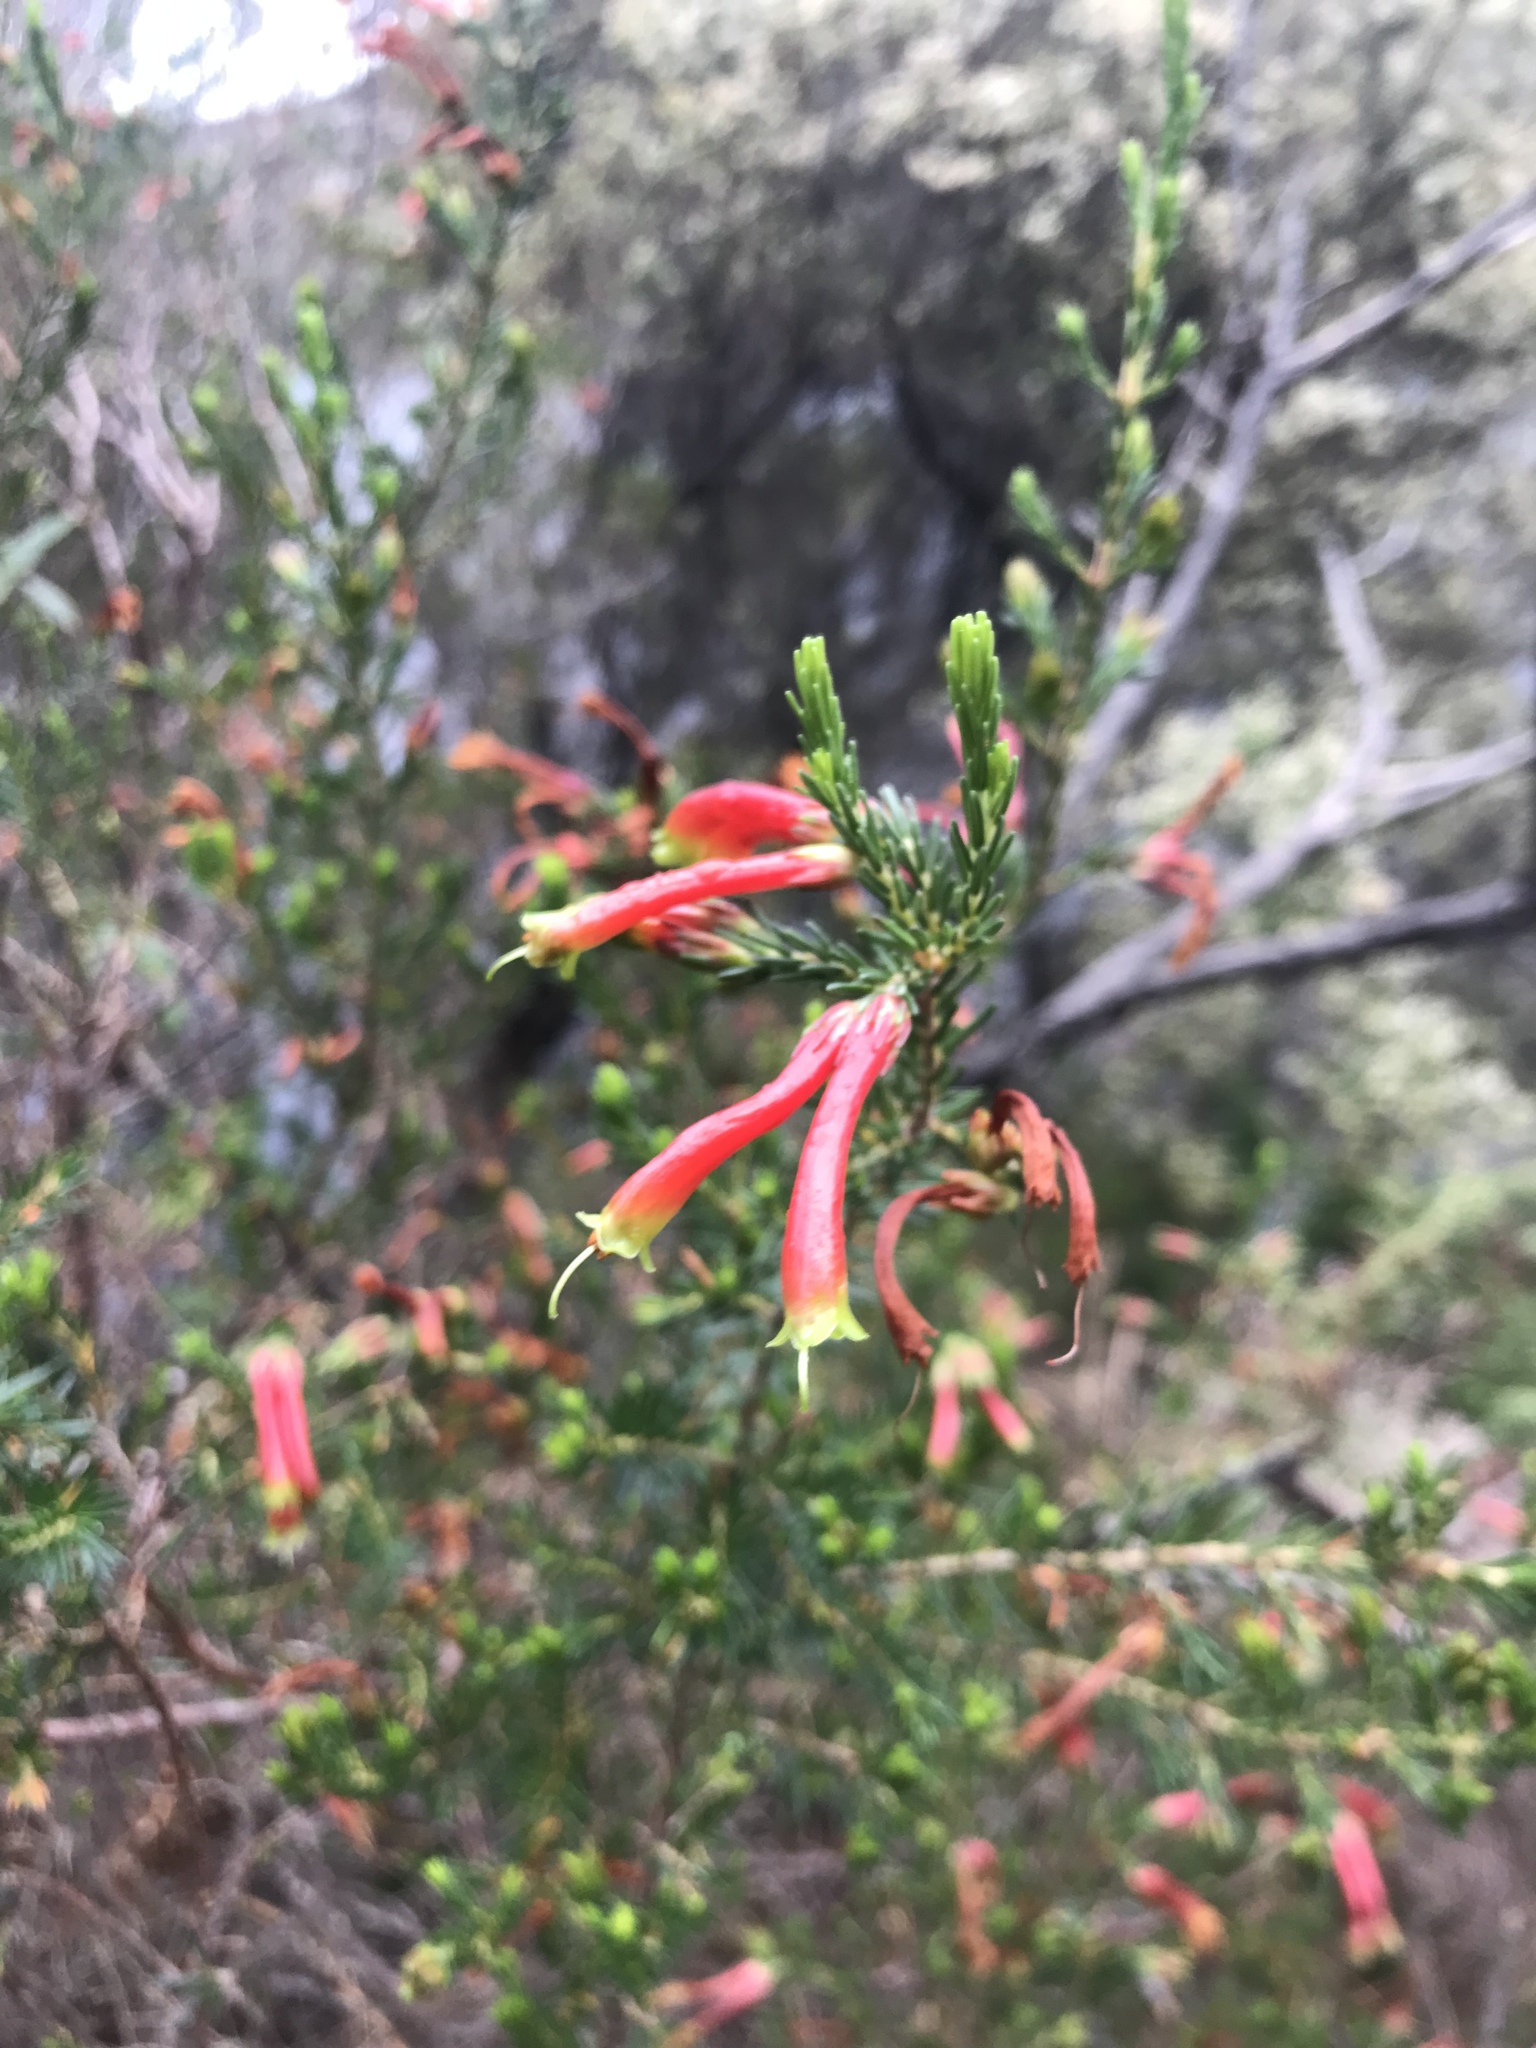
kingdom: Plantae
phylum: Tracheophyta
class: Magnoliopsida
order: Ericales
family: Ericaceae
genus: Erica
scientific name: Erica discolor
